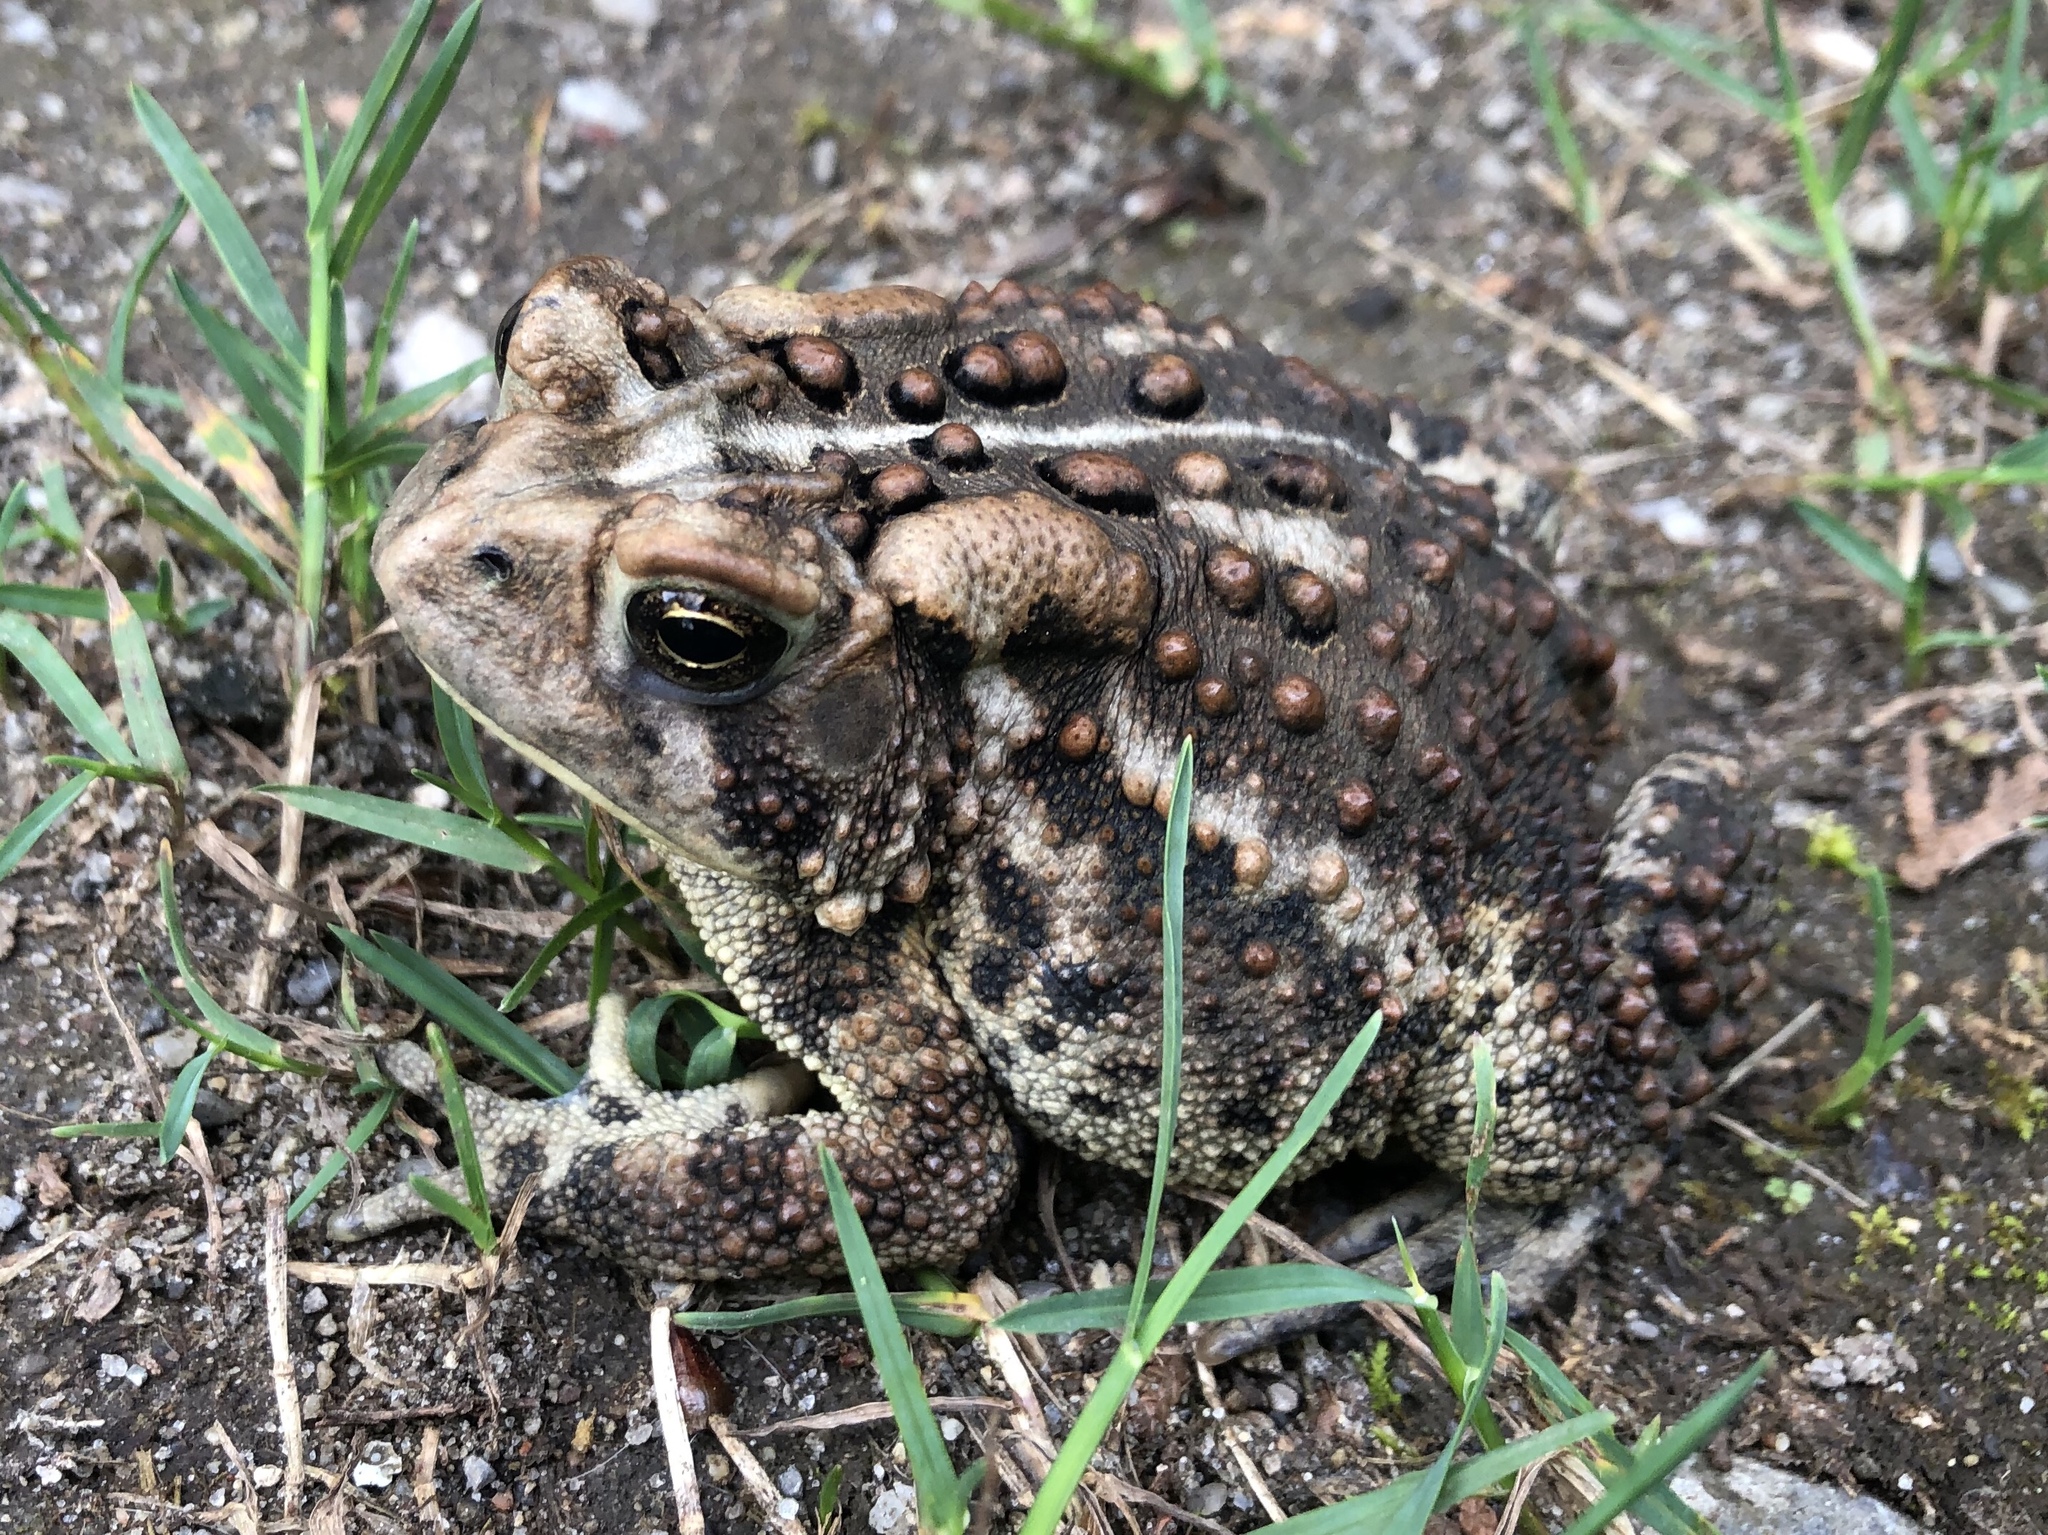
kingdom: Animalia
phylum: Chordata
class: Amphibia
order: Anura
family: Bufonidae
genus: Anaxyrus
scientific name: Anaxyrus americanus
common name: American toad
